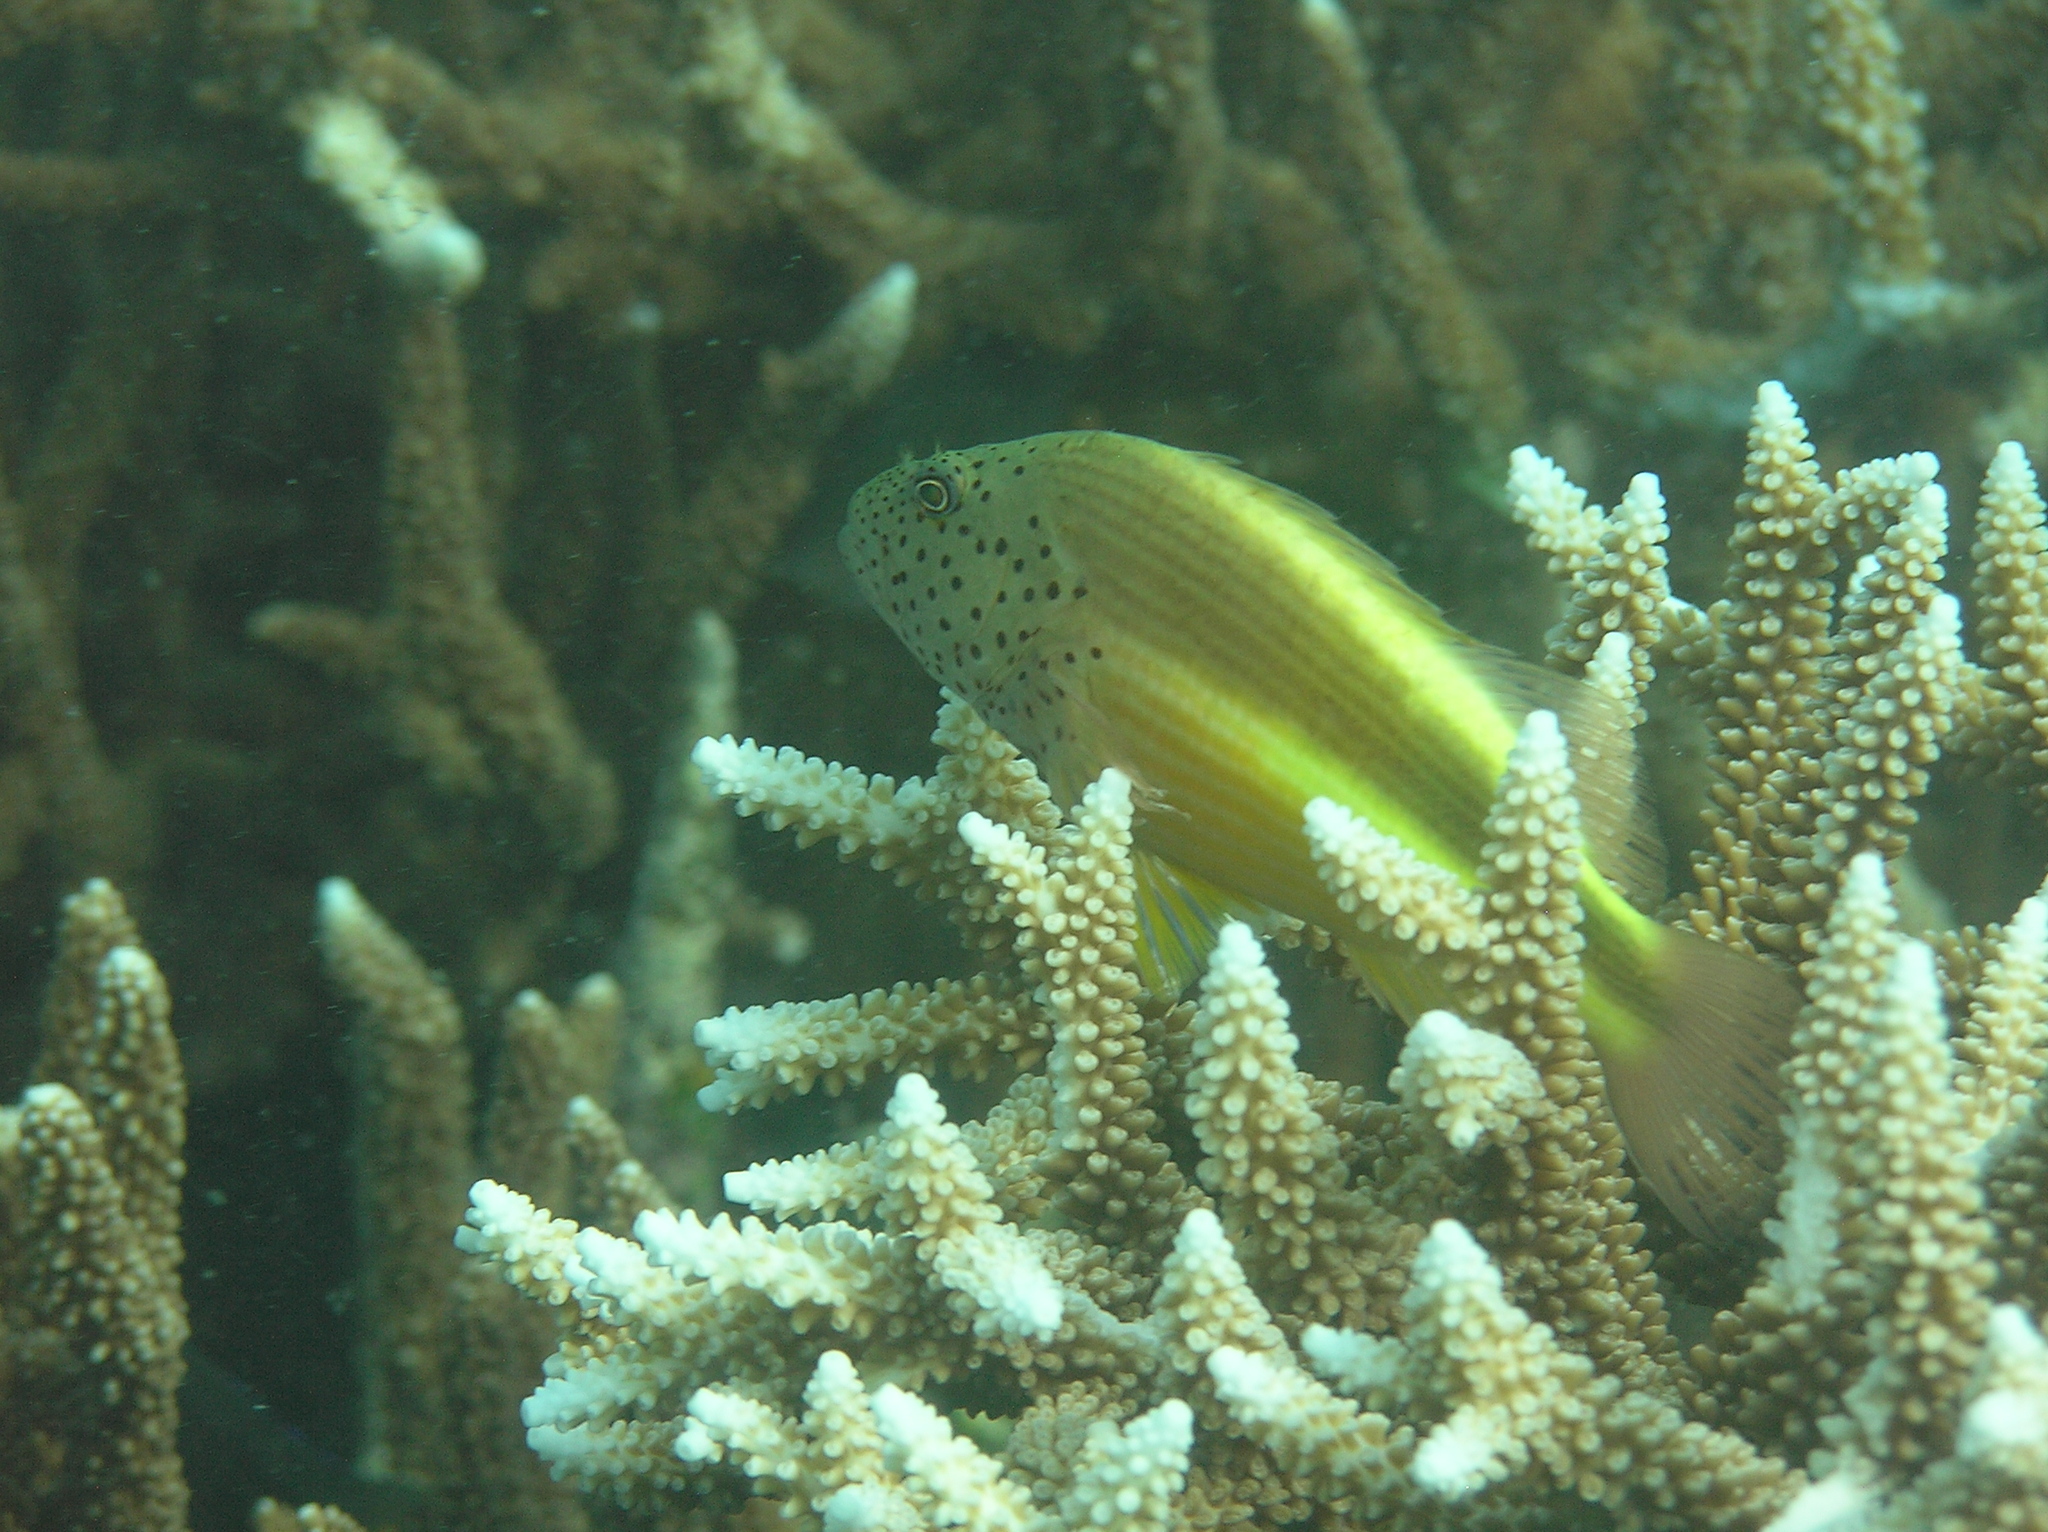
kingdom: Animalia
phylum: Chordata
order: Perciformes
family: Cirrhitidae
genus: Paracirrhites
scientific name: Paracirrhites forsteri
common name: Freckled hawkfish
